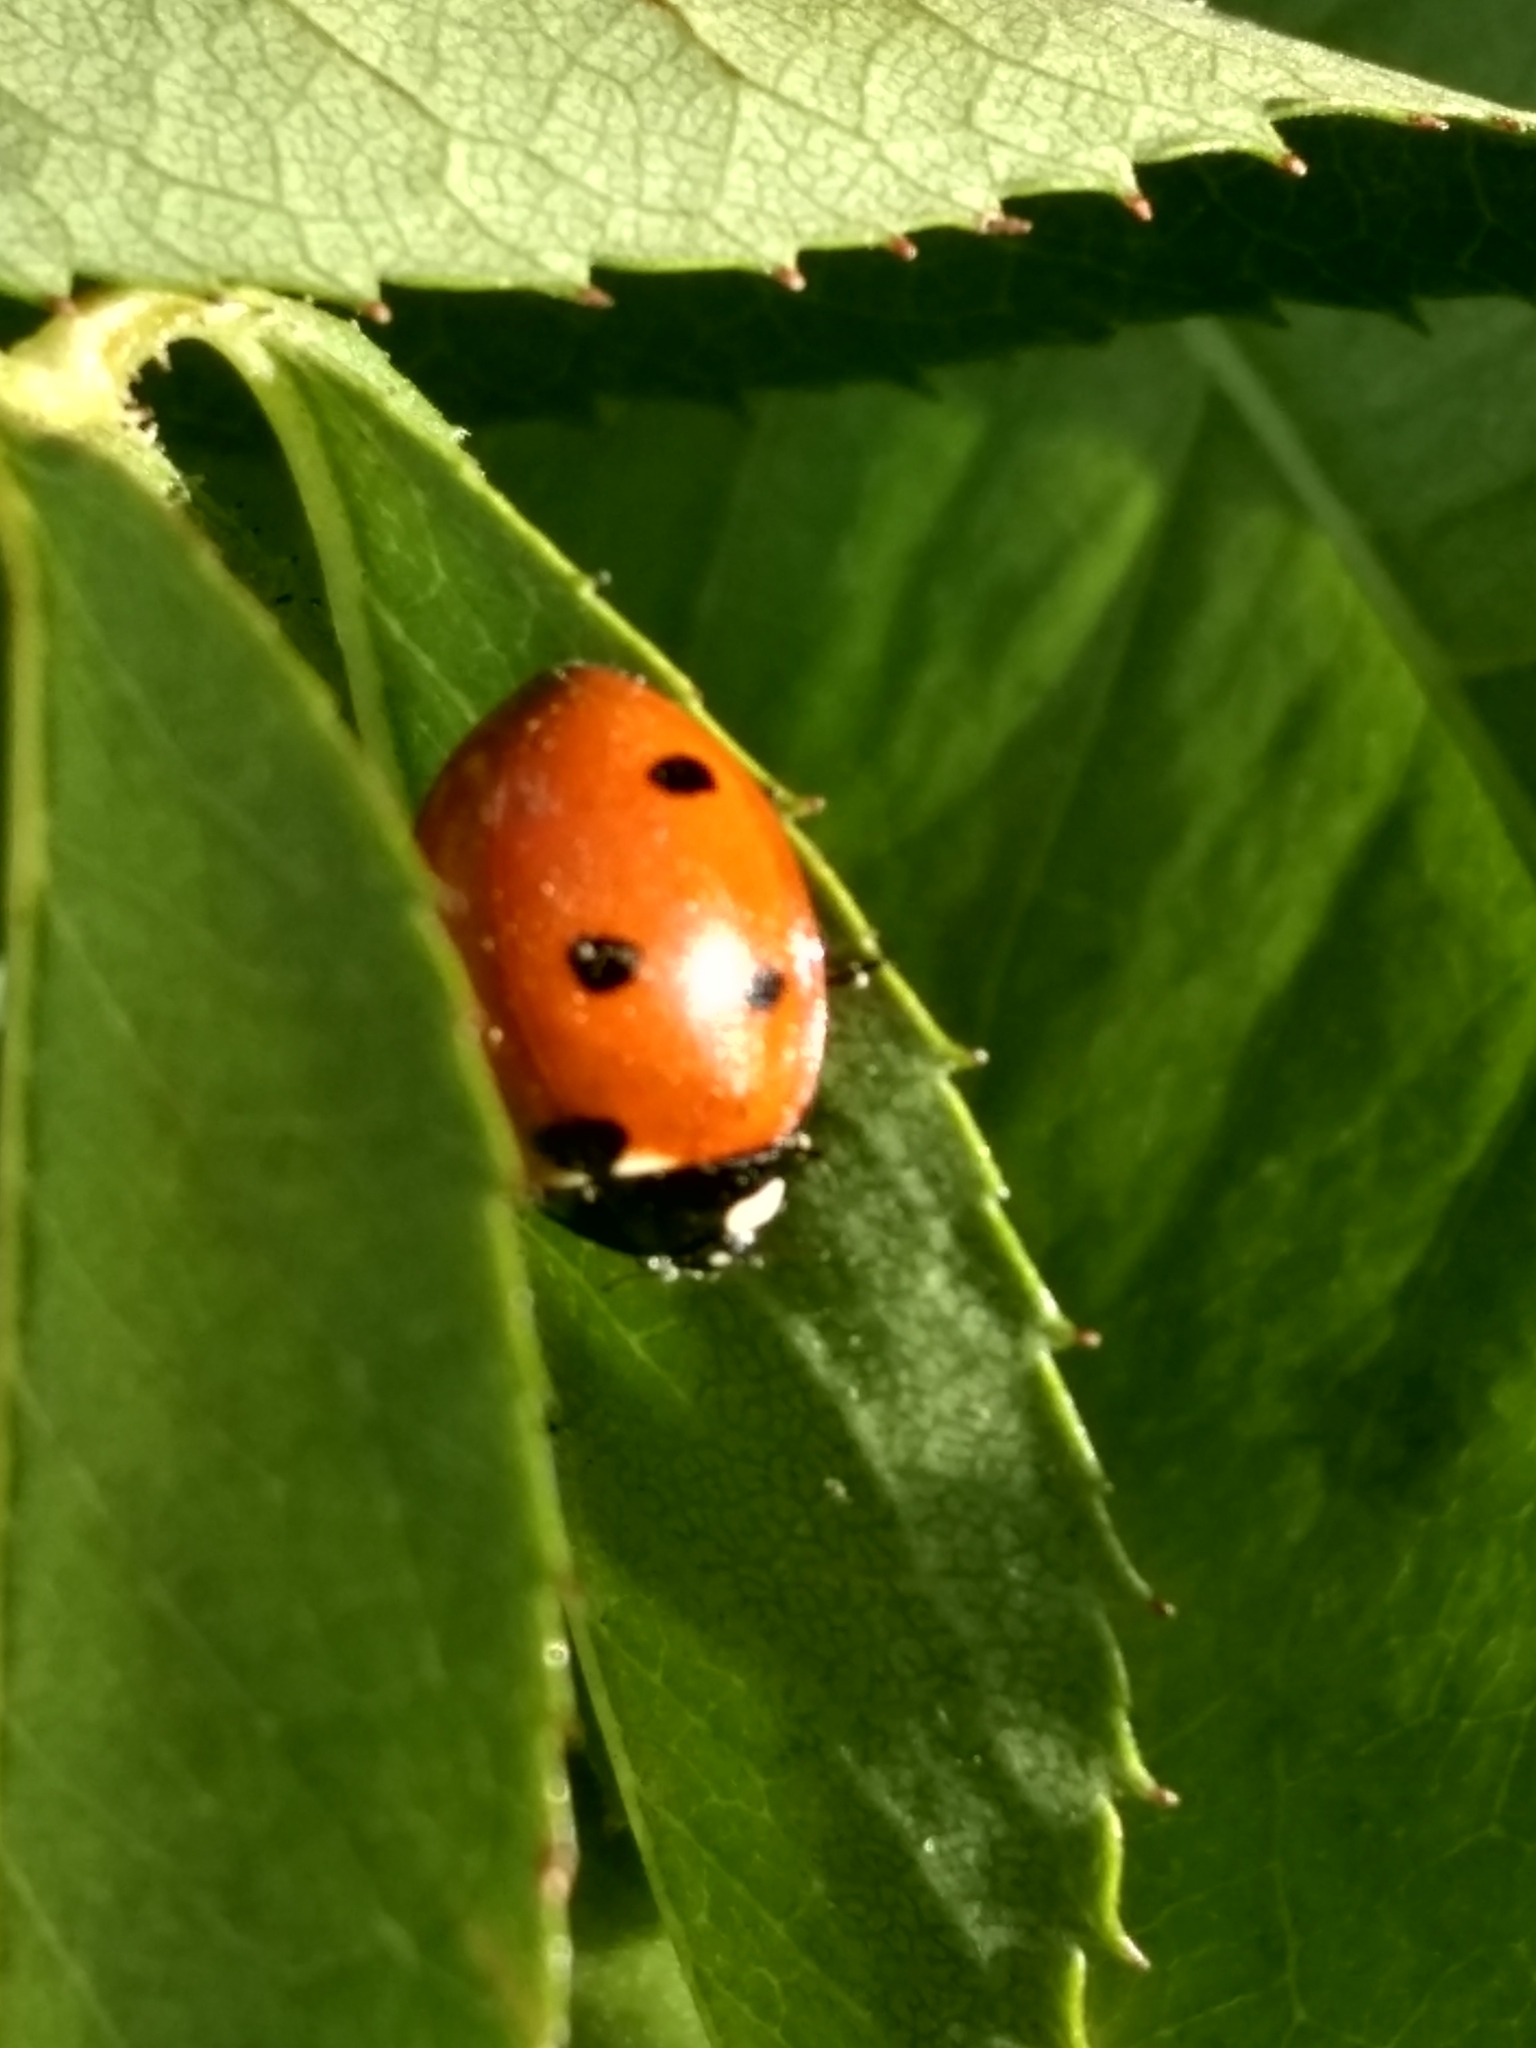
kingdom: Animalia
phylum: Arthropoda
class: Insecta
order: Coleoptera
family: Coccinellidae
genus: Coccinella
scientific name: Coccinella septempunctata
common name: Sevenspotted lady beetle
